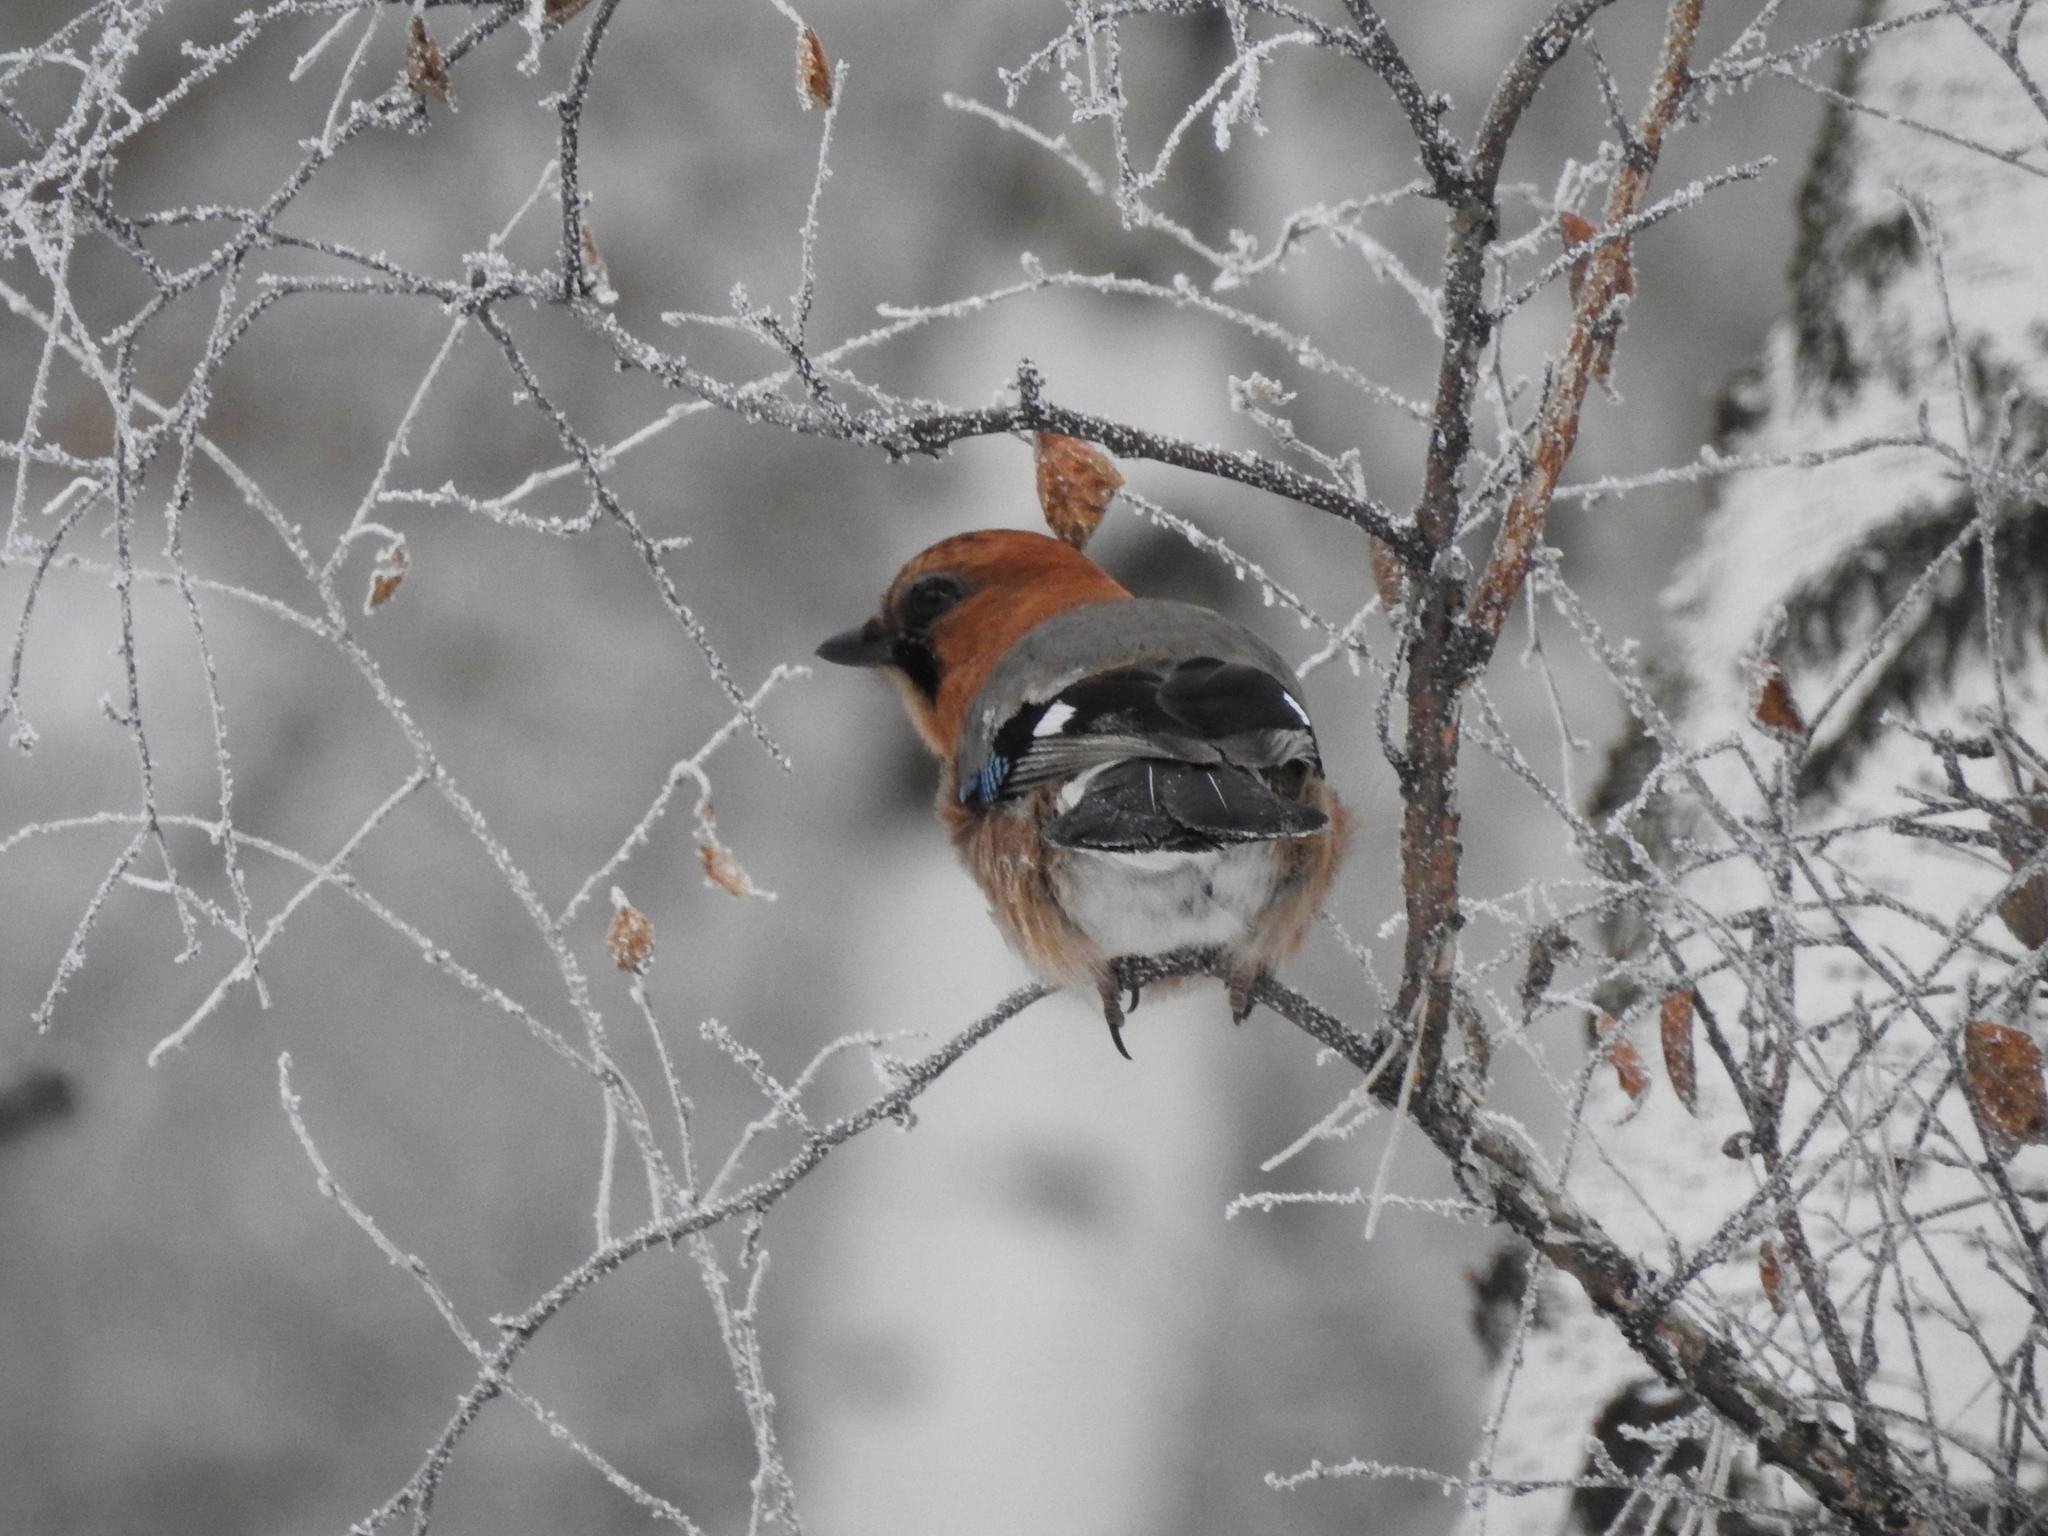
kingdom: Animalia
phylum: Chordata
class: Aves
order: Passeriformes
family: Corvidae
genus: Garrulus
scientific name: Garrulus glandarius
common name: Eurasian jay
